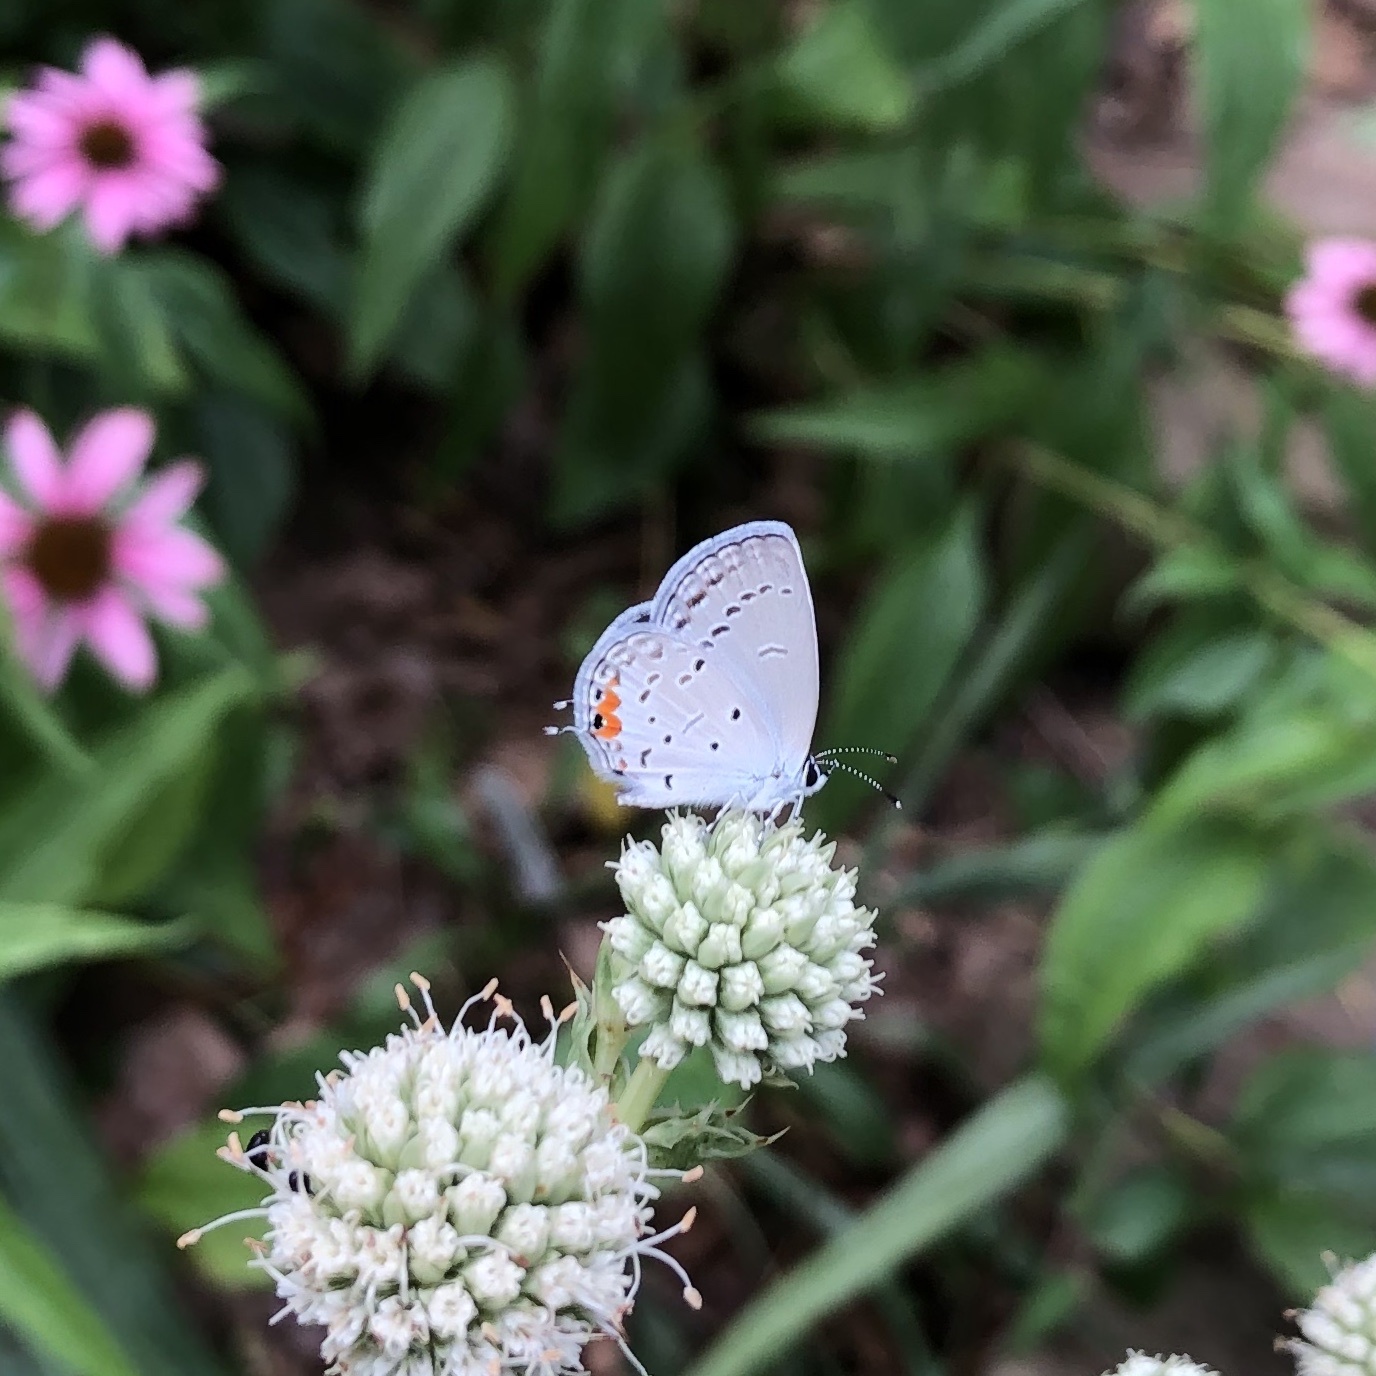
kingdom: Animalia
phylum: Arthropoda
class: Insecta
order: Lepidoptera
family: Lycaenidae
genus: Elkalyce
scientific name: Elkalyce comyntas
